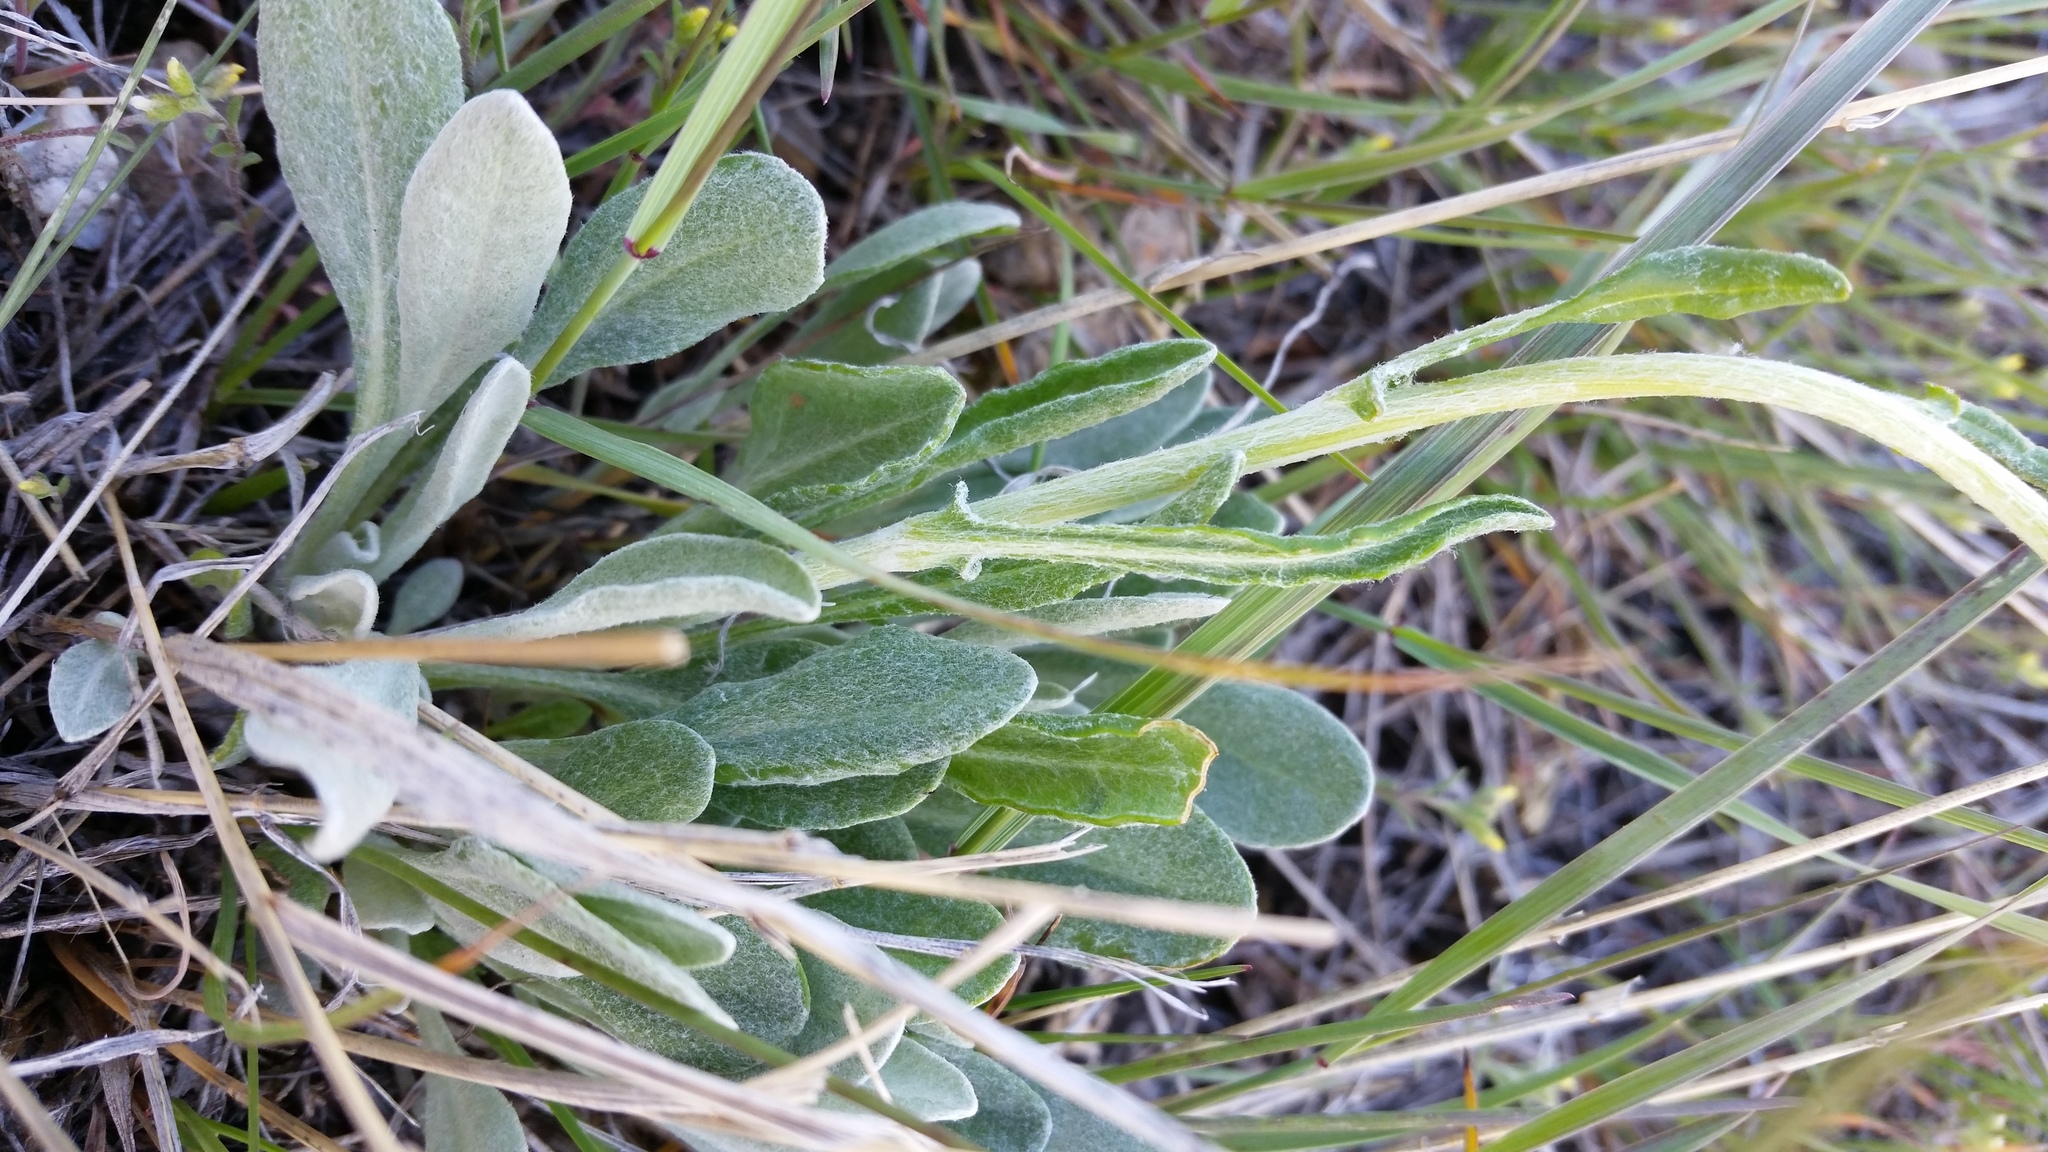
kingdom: Plantae
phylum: Tracheophyta
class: Magnoliopsida
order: Asterales
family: Asteraceae
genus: Packera
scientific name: Packera cana
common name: Woolly groundsel
